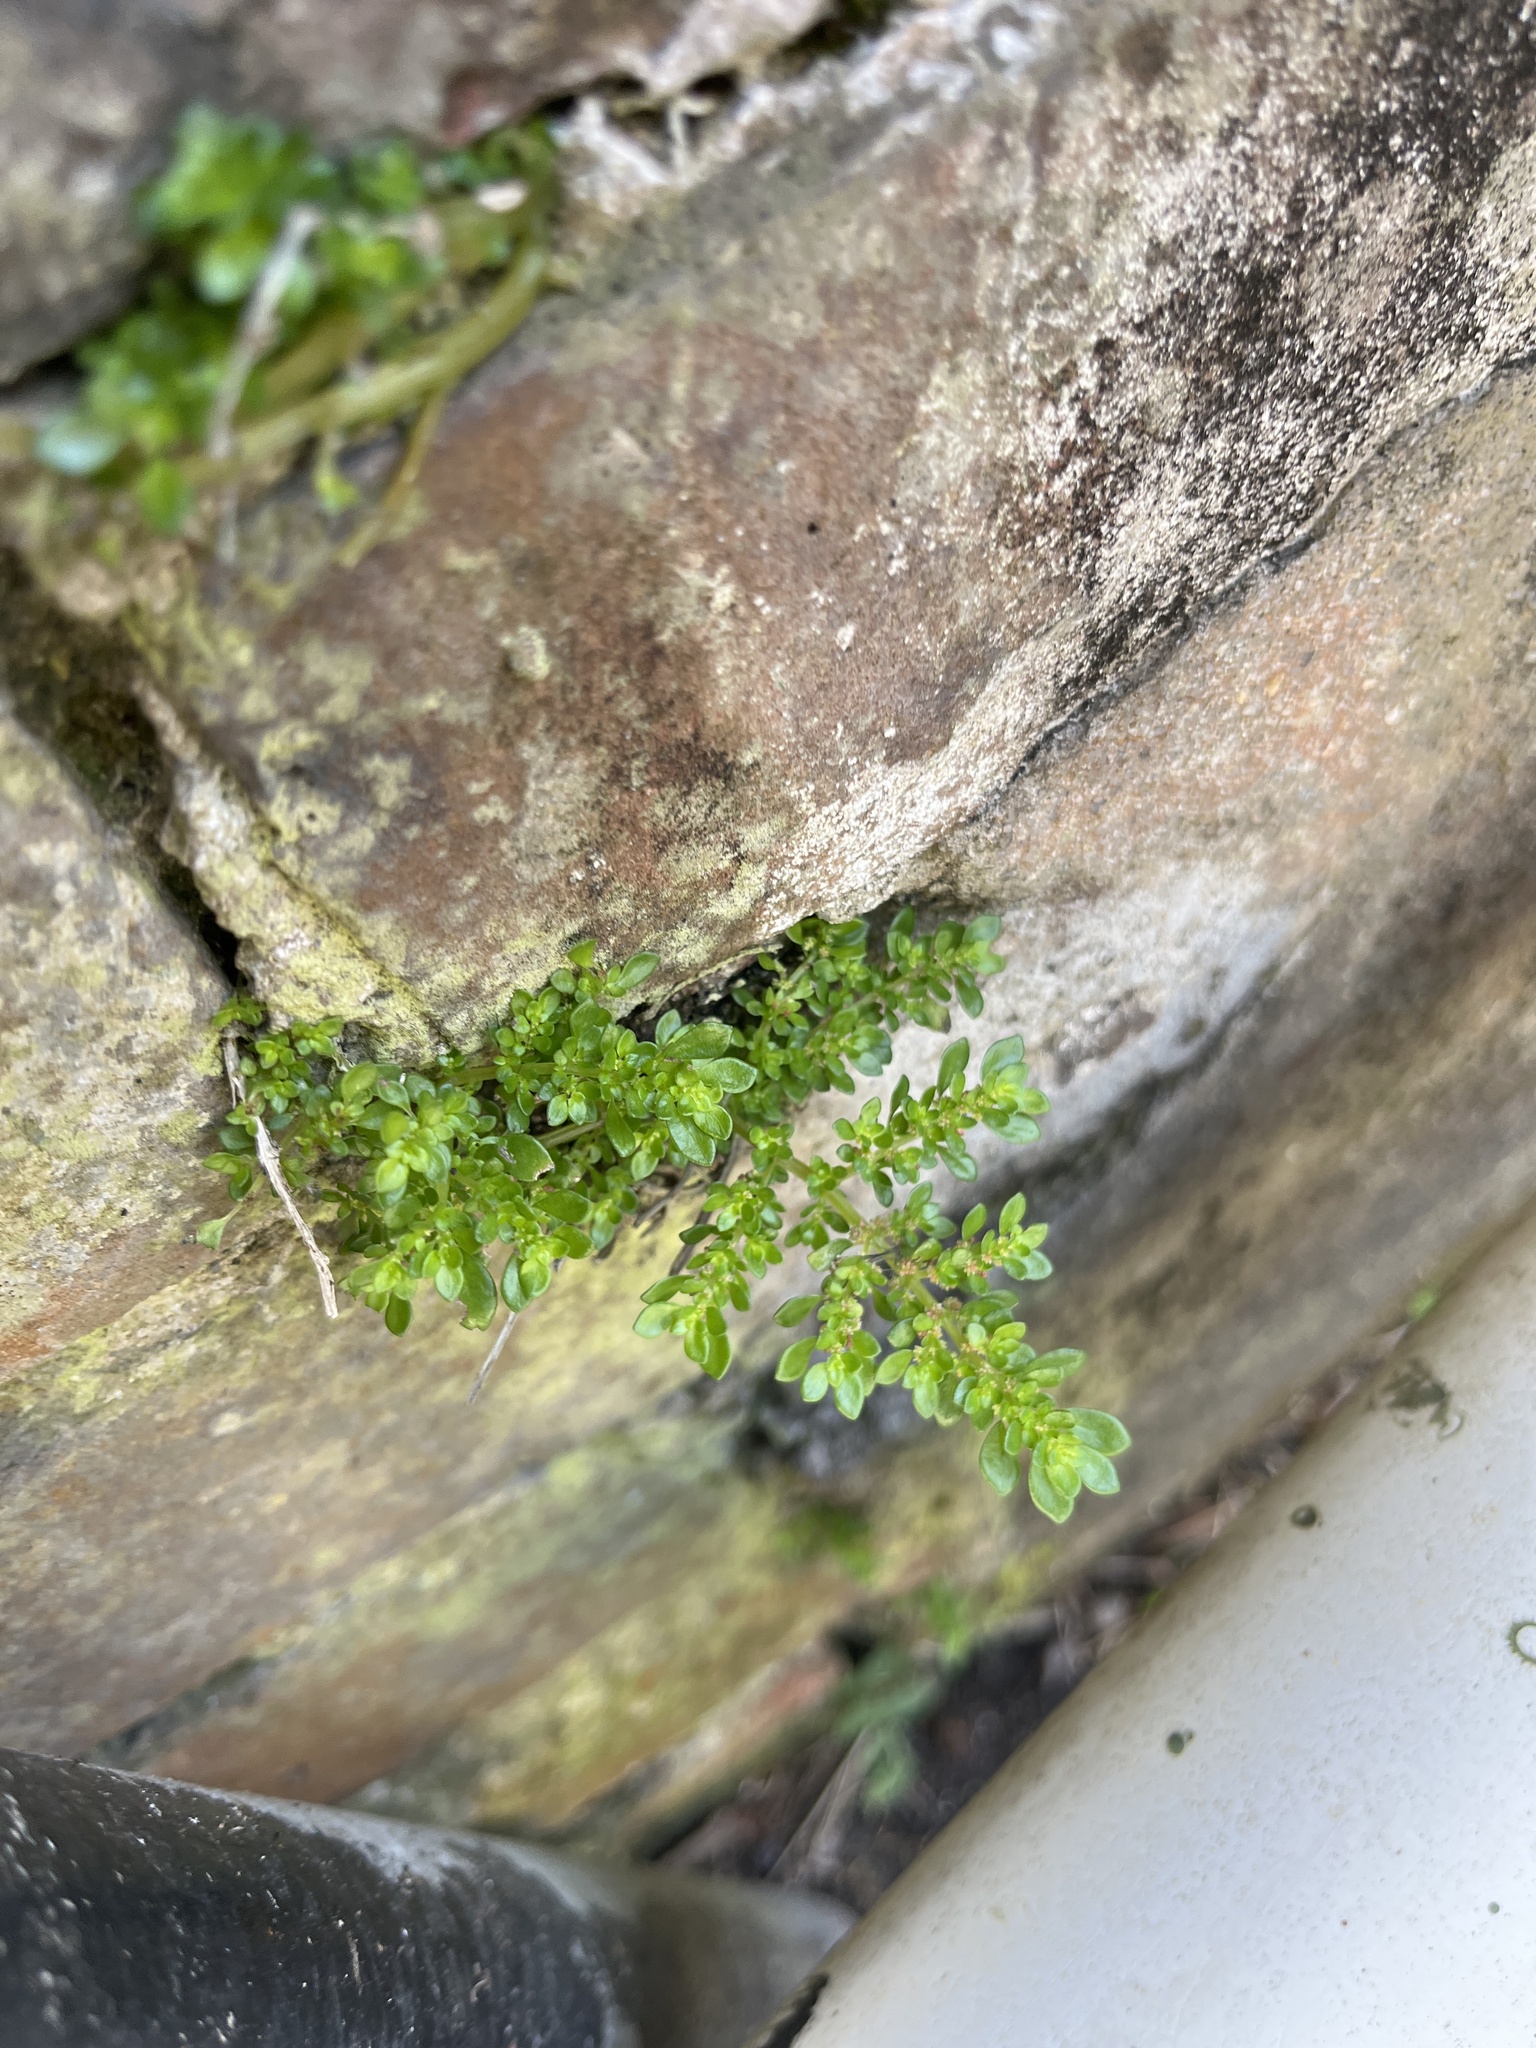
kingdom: Plantae
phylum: Tracheophyta
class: Magnoliopsida
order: Rosales
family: Urticaceae
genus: Pilea
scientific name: Pilea microphylla
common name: Artillery-plant
